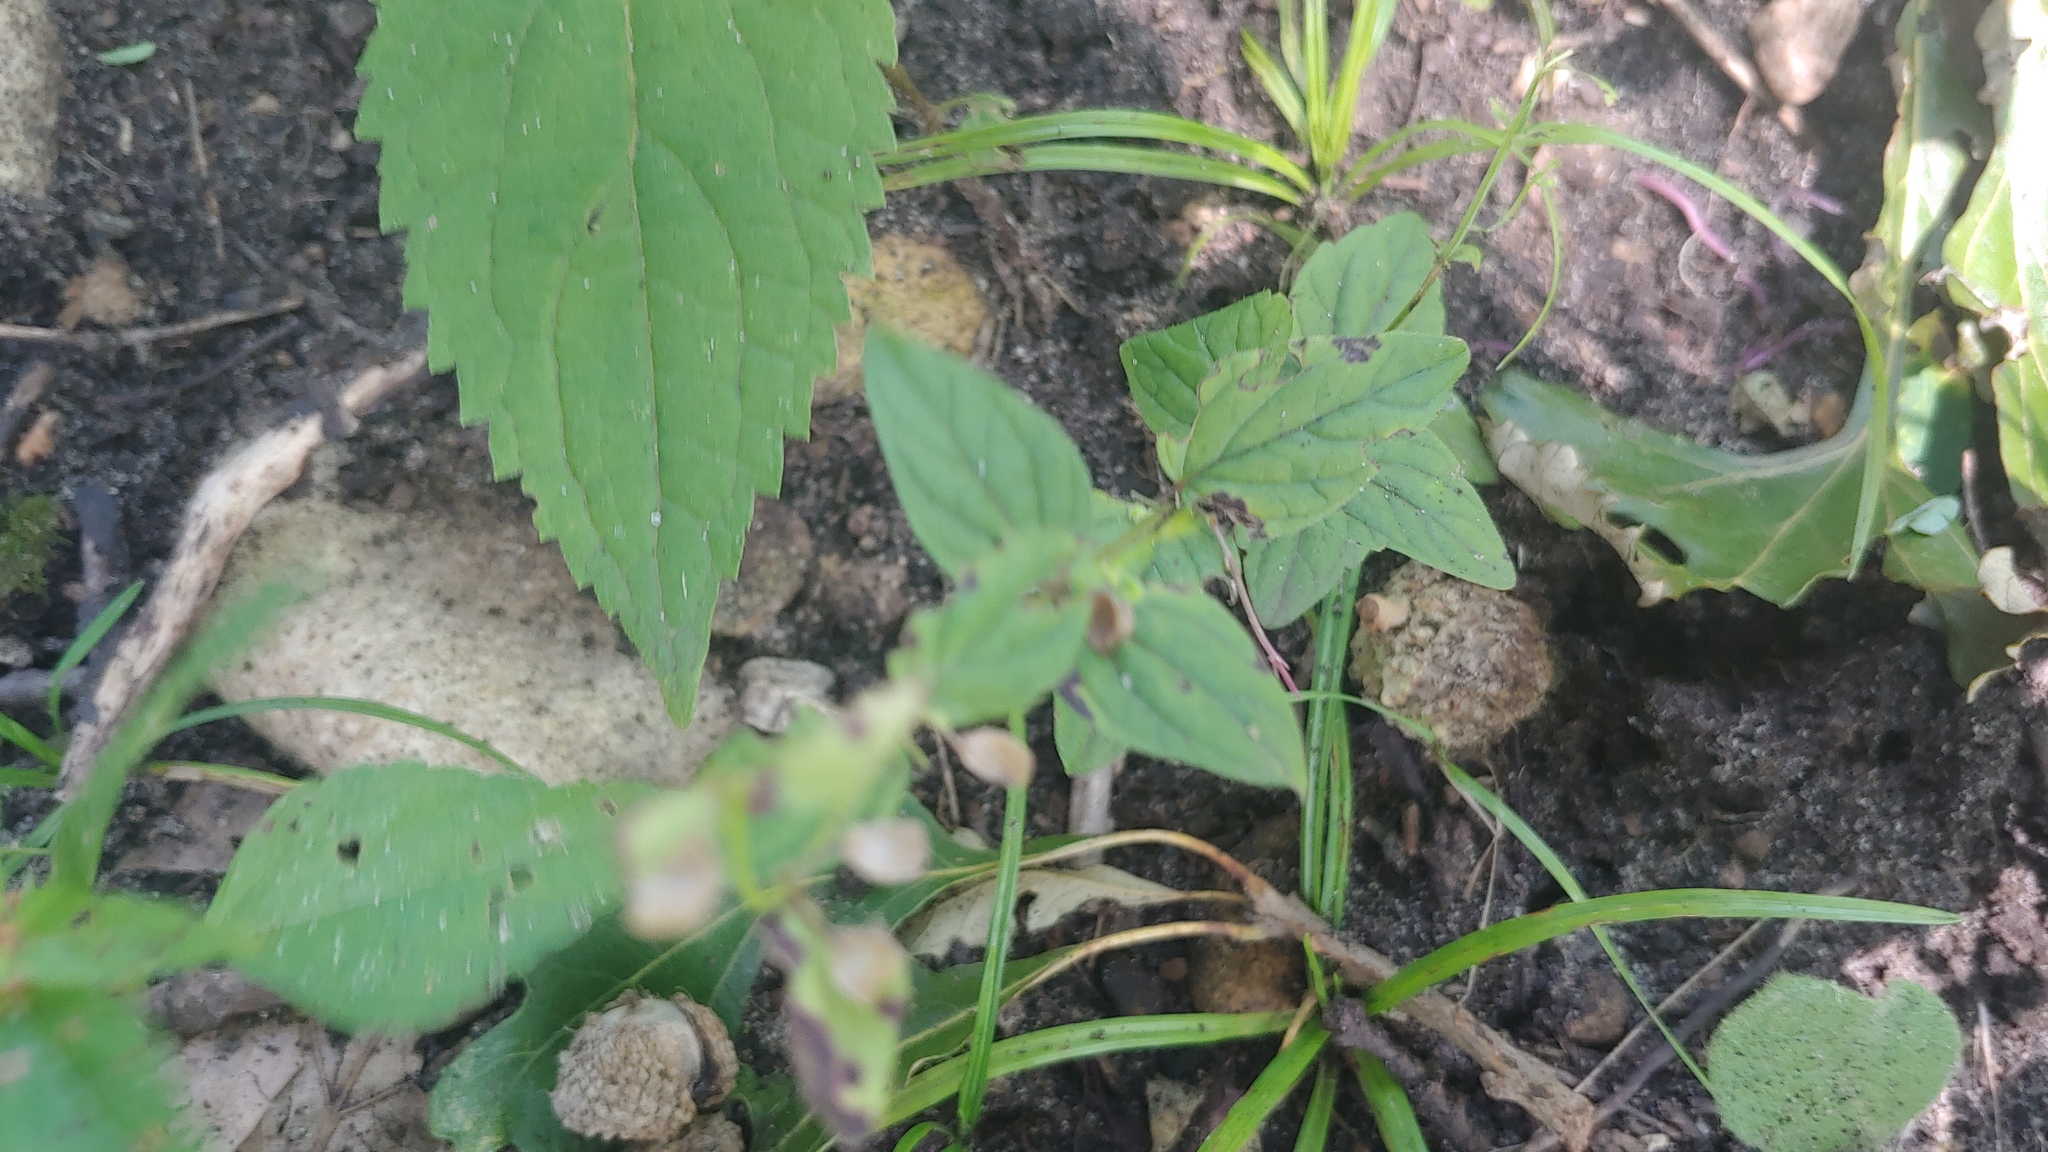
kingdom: Plantae
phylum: Tracheophyta
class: Magnoliopsida
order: Lamiales
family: Lamiaceae
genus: Scutellaria
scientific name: Scutellaria nervosa
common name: Bottomland skullcap
